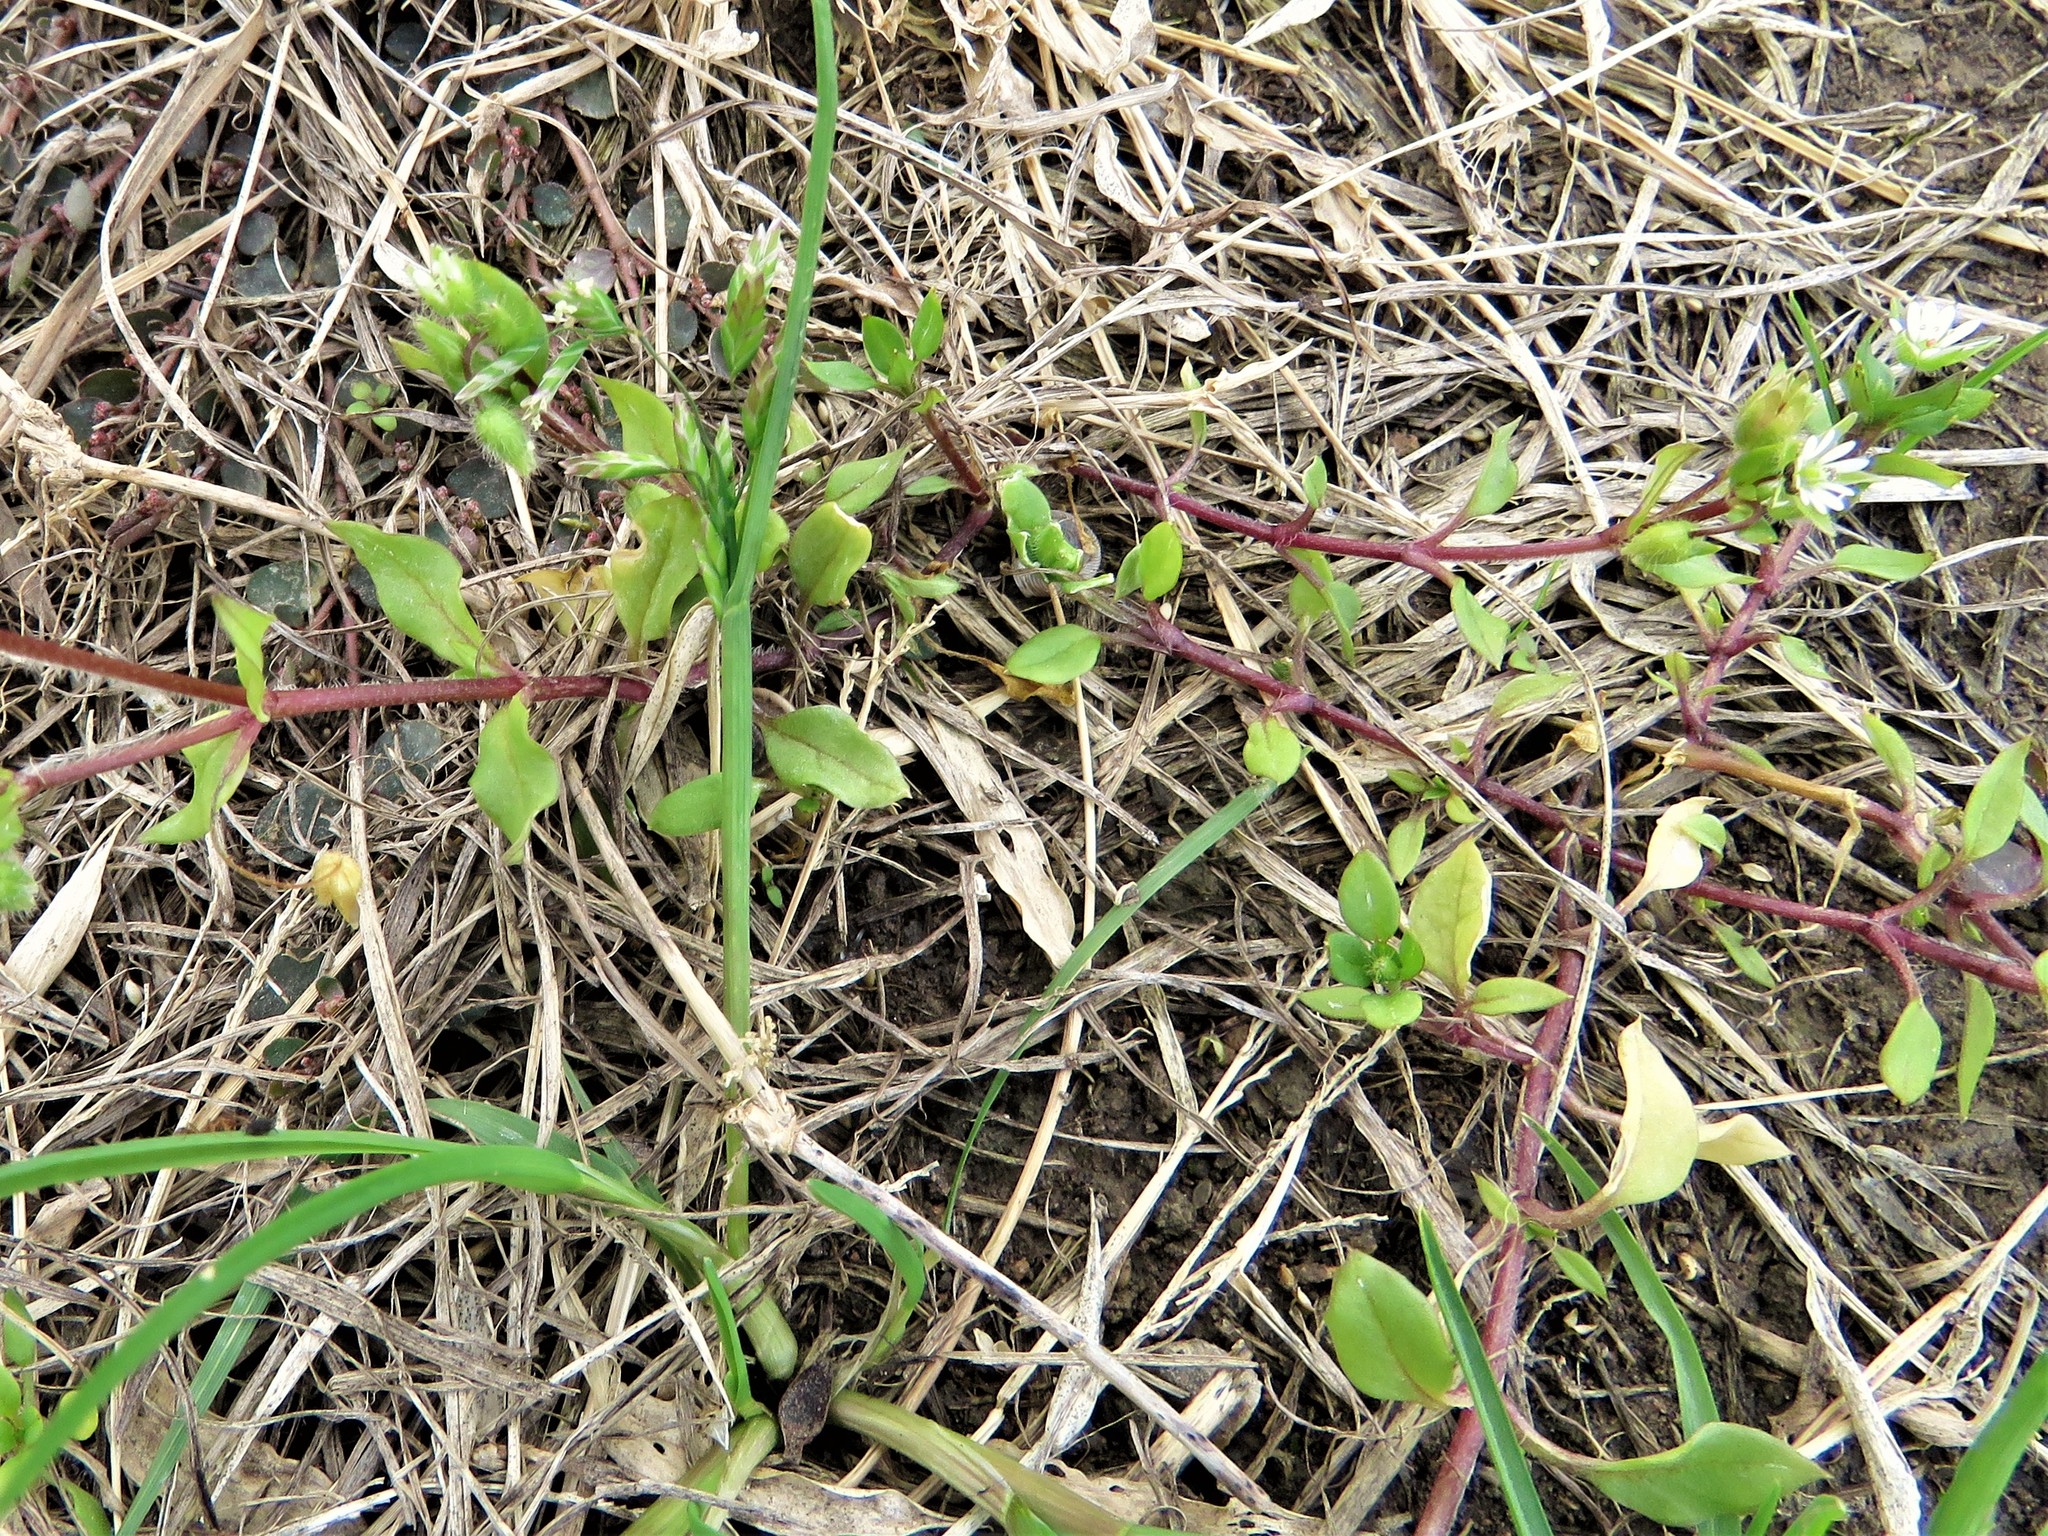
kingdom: Plantae
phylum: Tracheophyta
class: Magnoliopsida
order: Caryophyllales
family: Caryophyllaceae
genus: Stellaria
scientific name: Stellaria media
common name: Common chickweed
